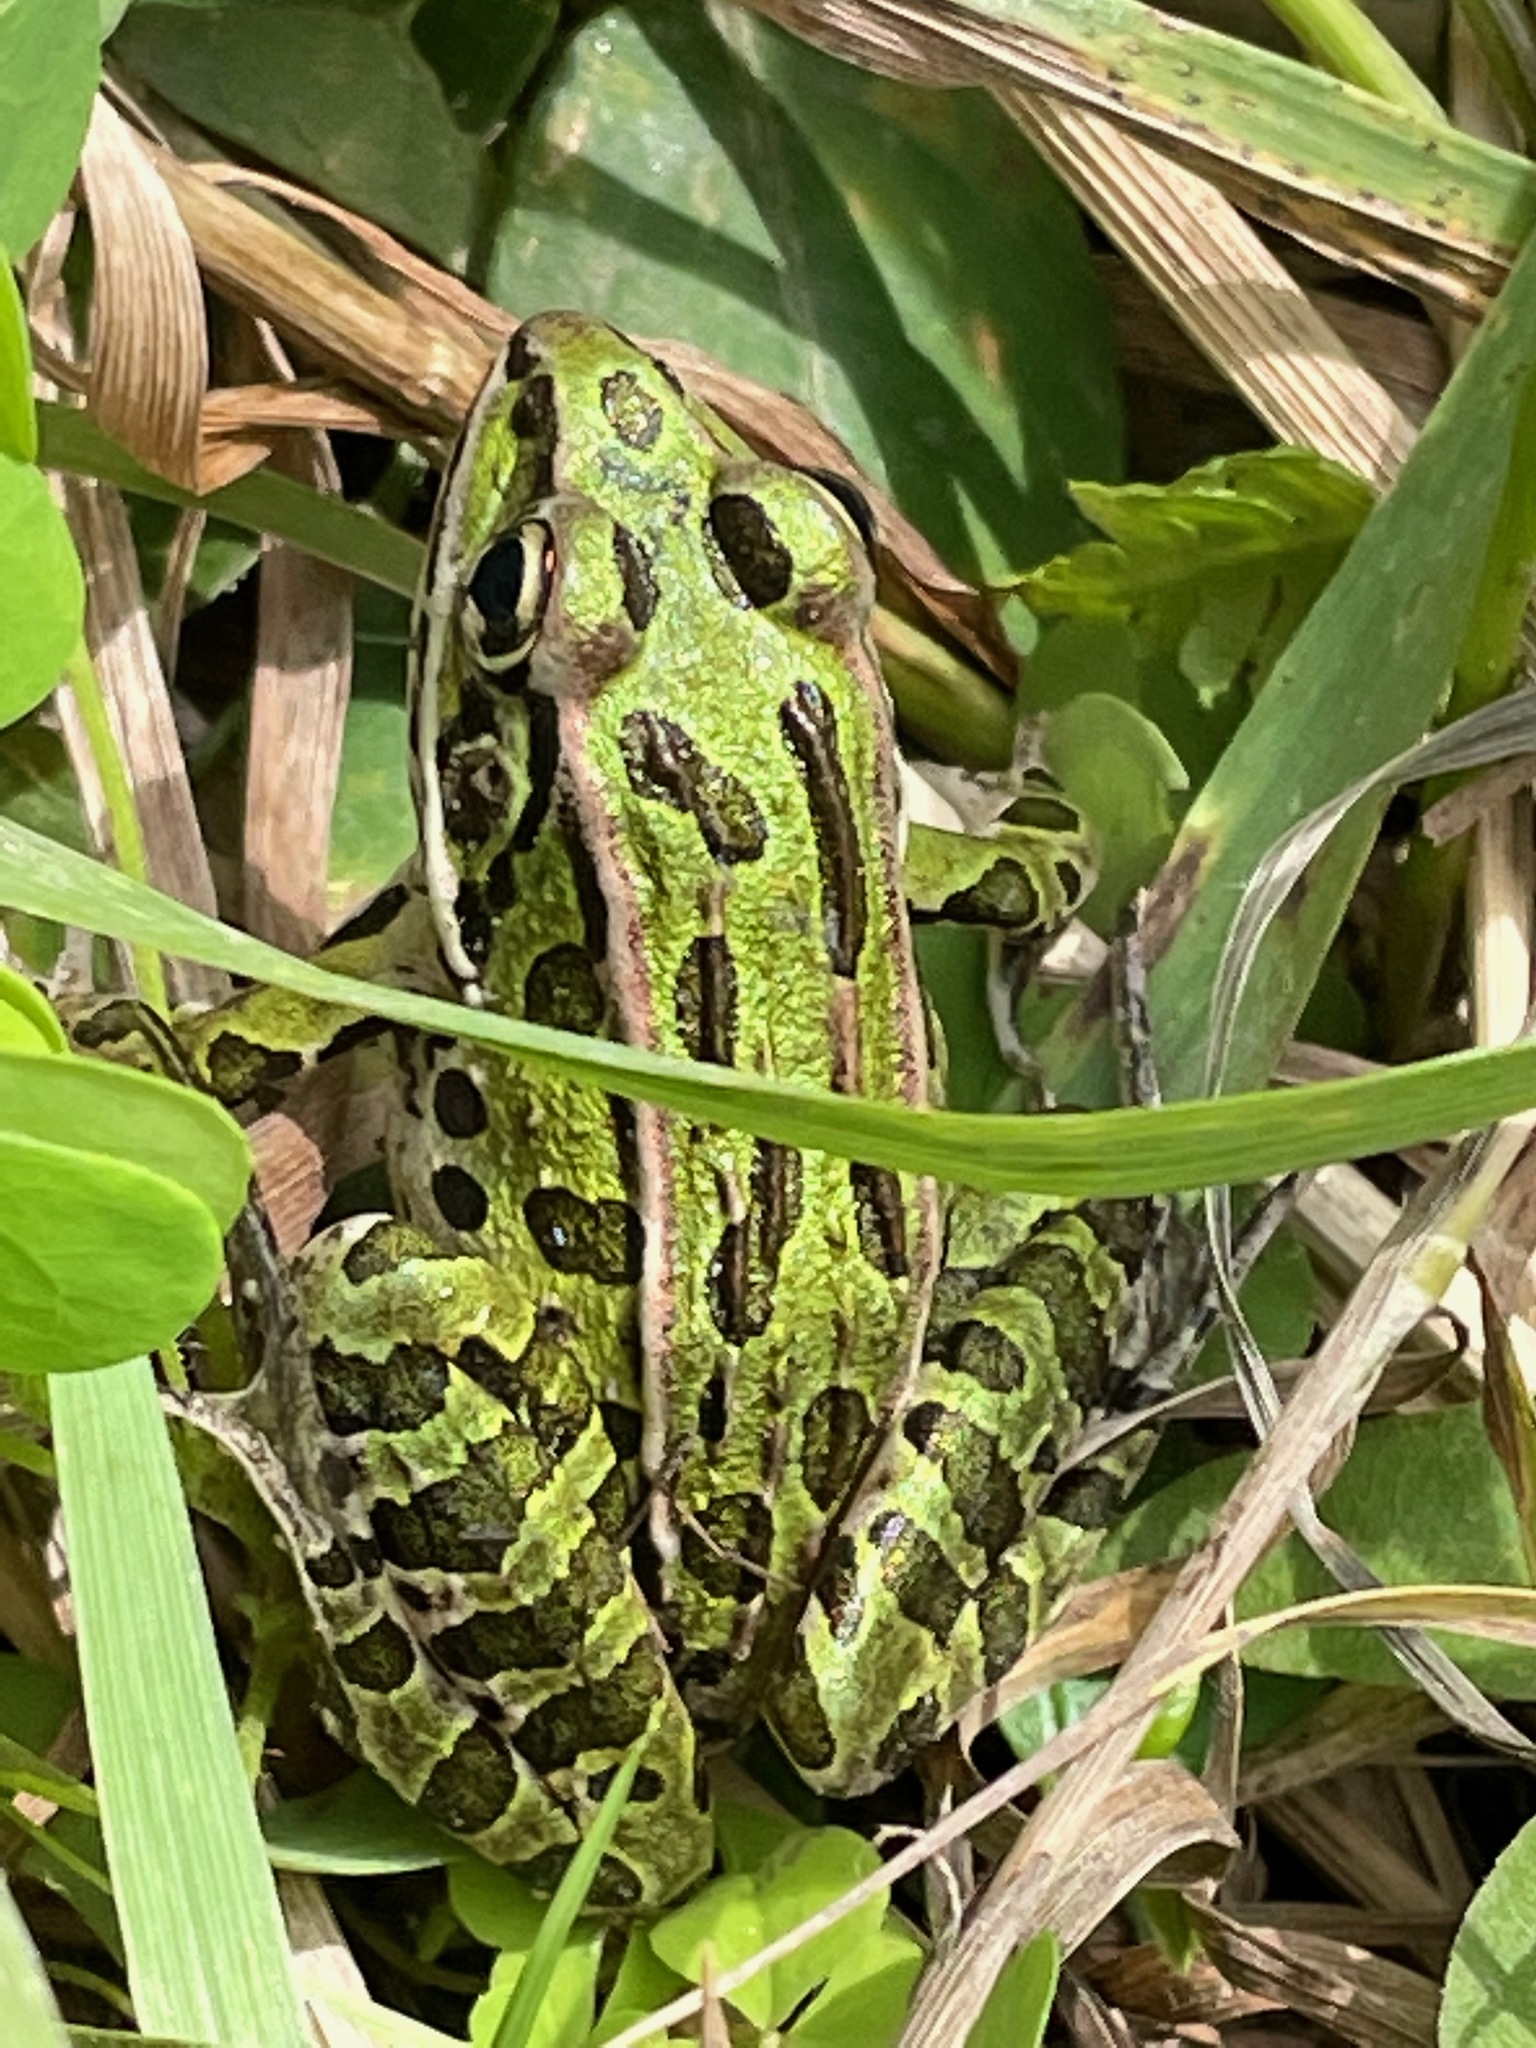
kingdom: Animalia
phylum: Chordata
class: Amphibia
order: Anura
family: Ranidae
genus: Lithobates
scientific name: Lithobates pipiens
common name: Northern leopard frog
